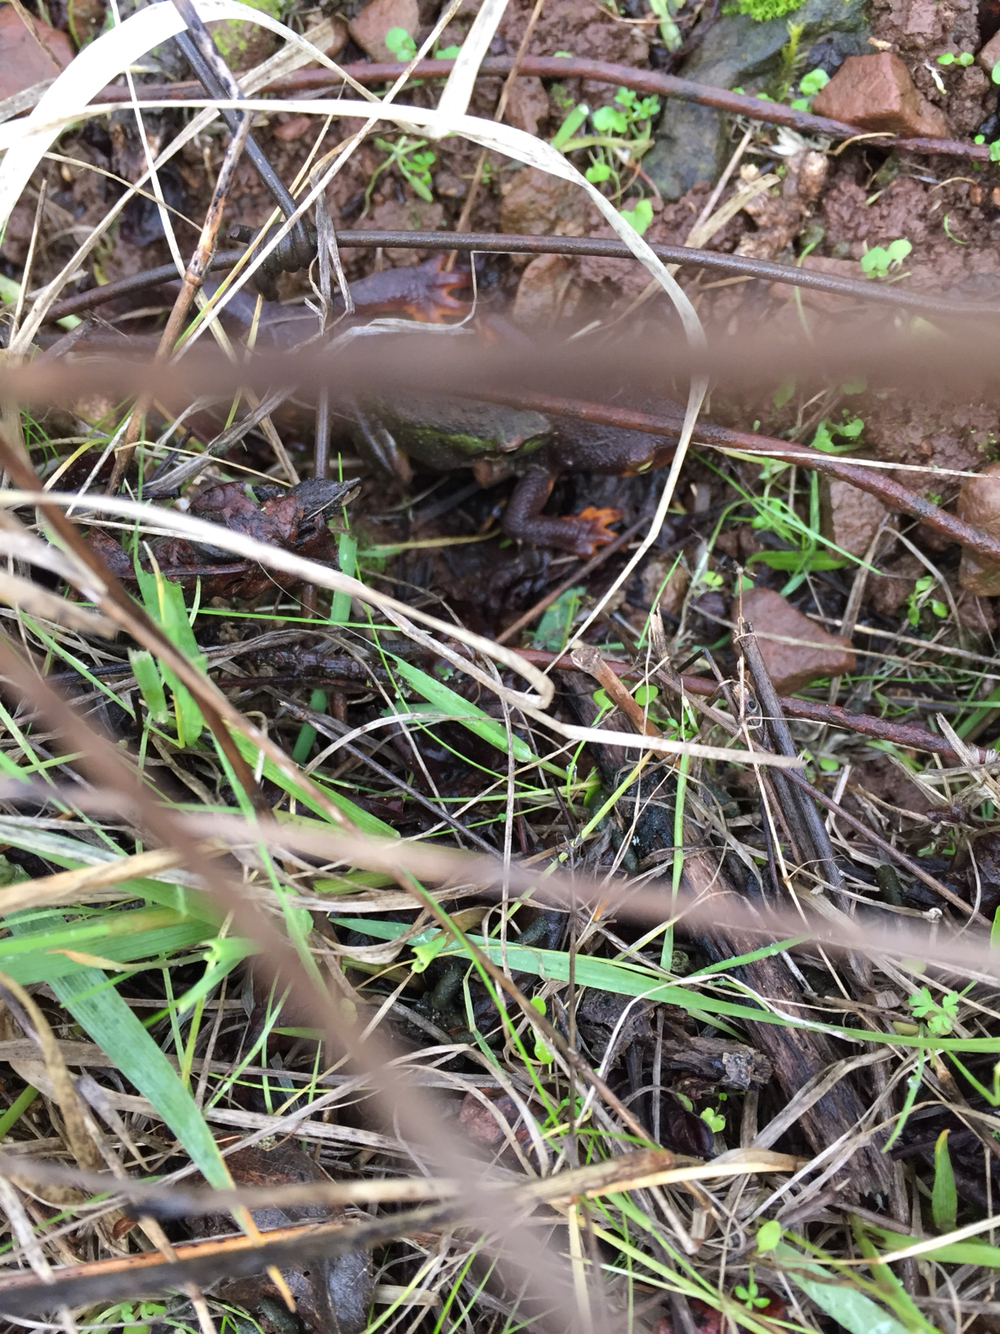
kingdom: Animalia
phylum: Chordata
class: Amphibia
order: Caudata
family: Salamandridae
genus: Taricha
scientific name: Taricha torosa
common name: California newt
